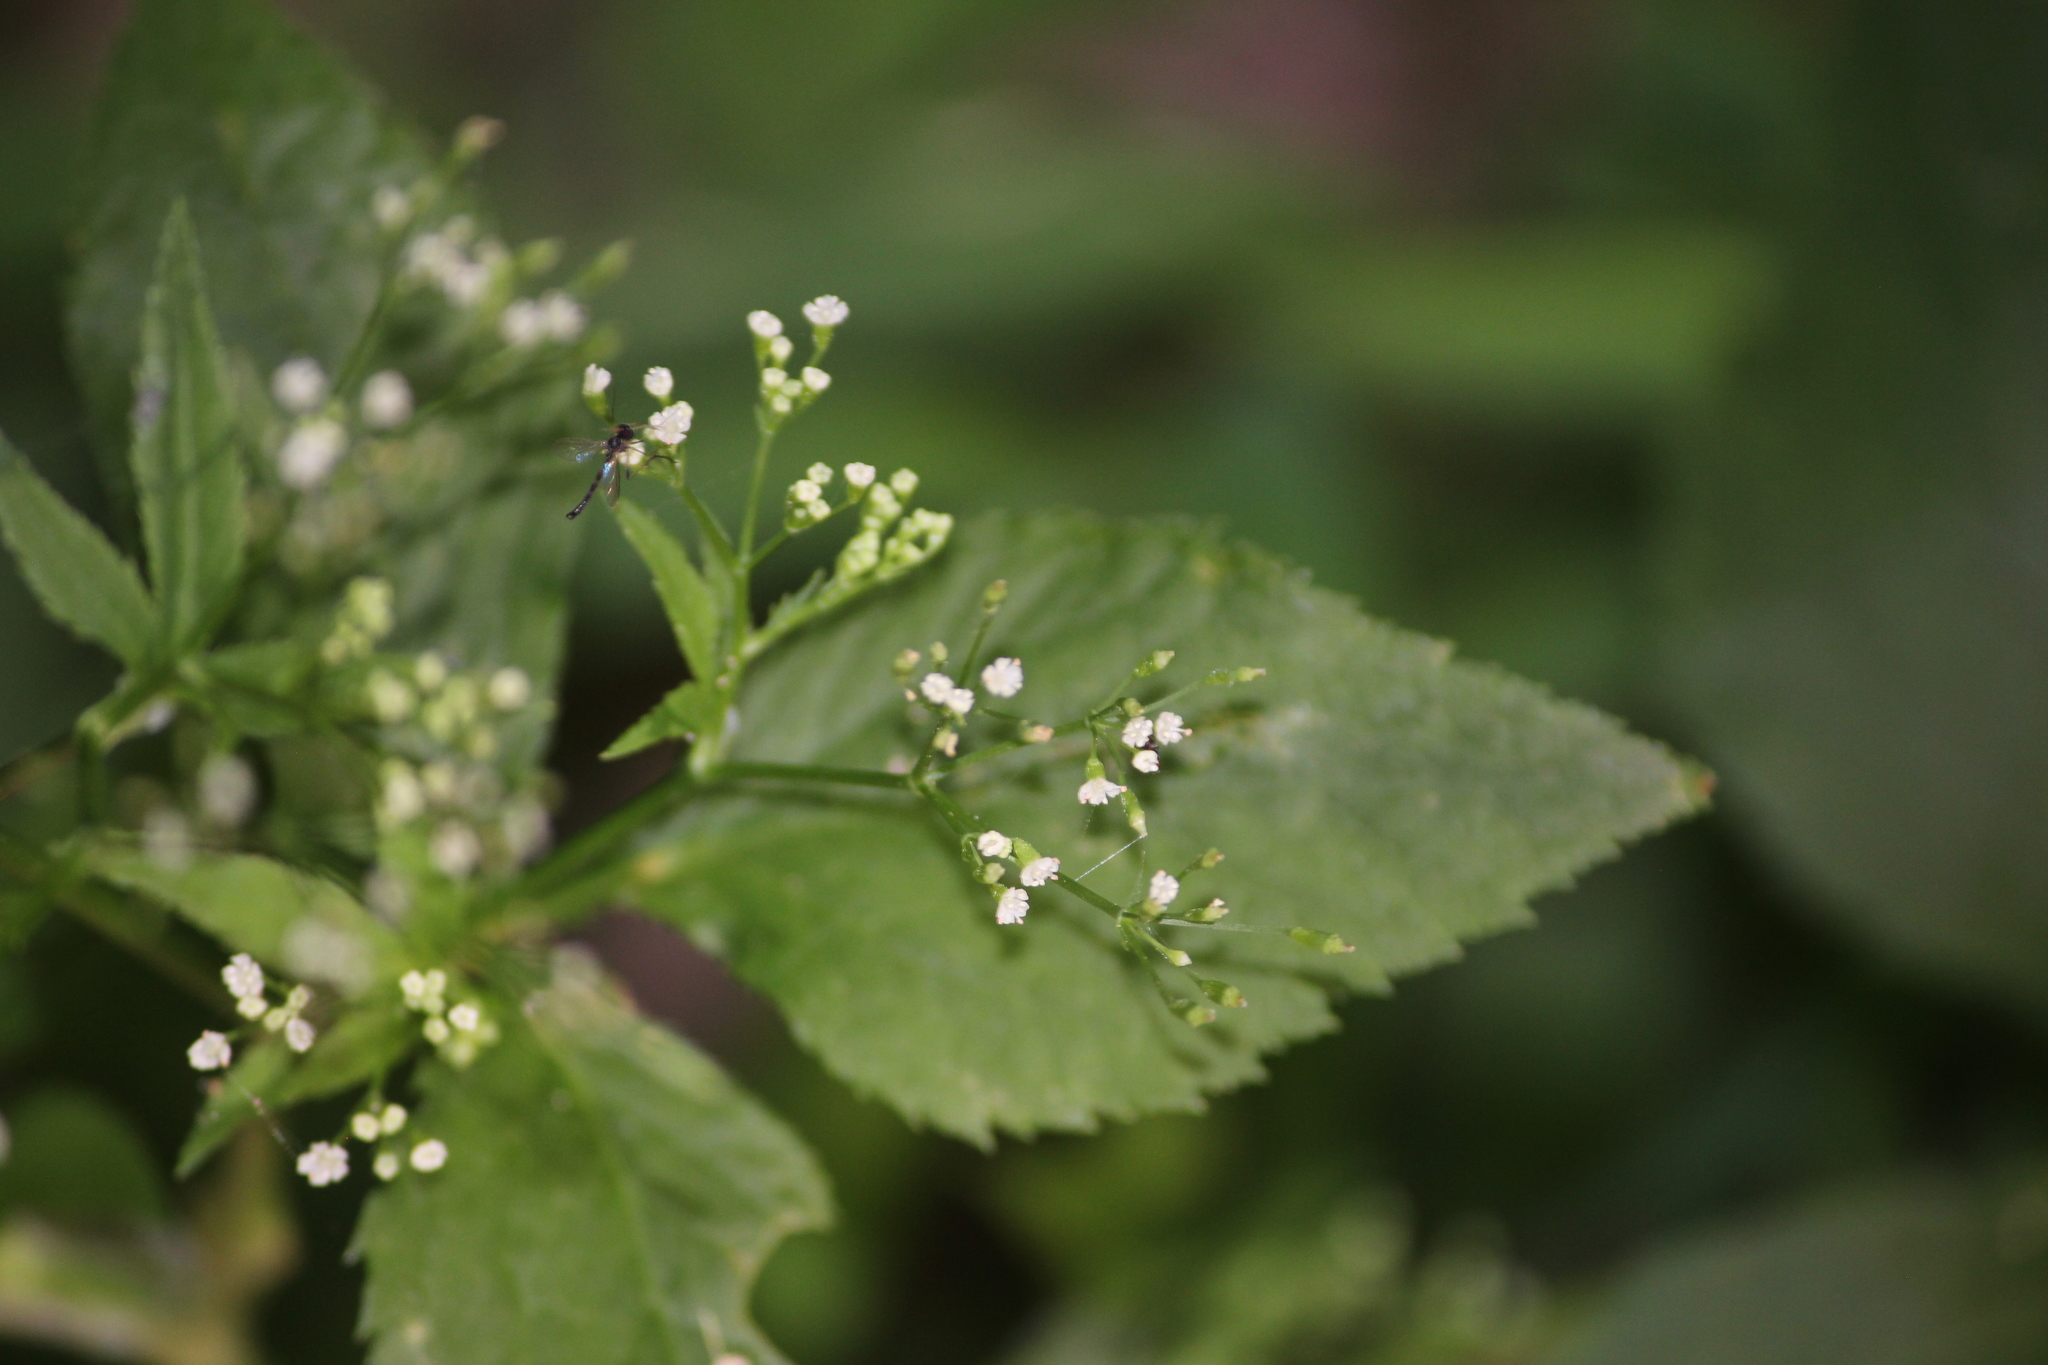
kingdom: Plantae
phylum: Tracheophyta
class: Magnoliopsida
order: Apiales
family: Apiaceae
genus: Cryptotaenia
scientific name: Cryptotaenia canadensis
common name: Honewort
